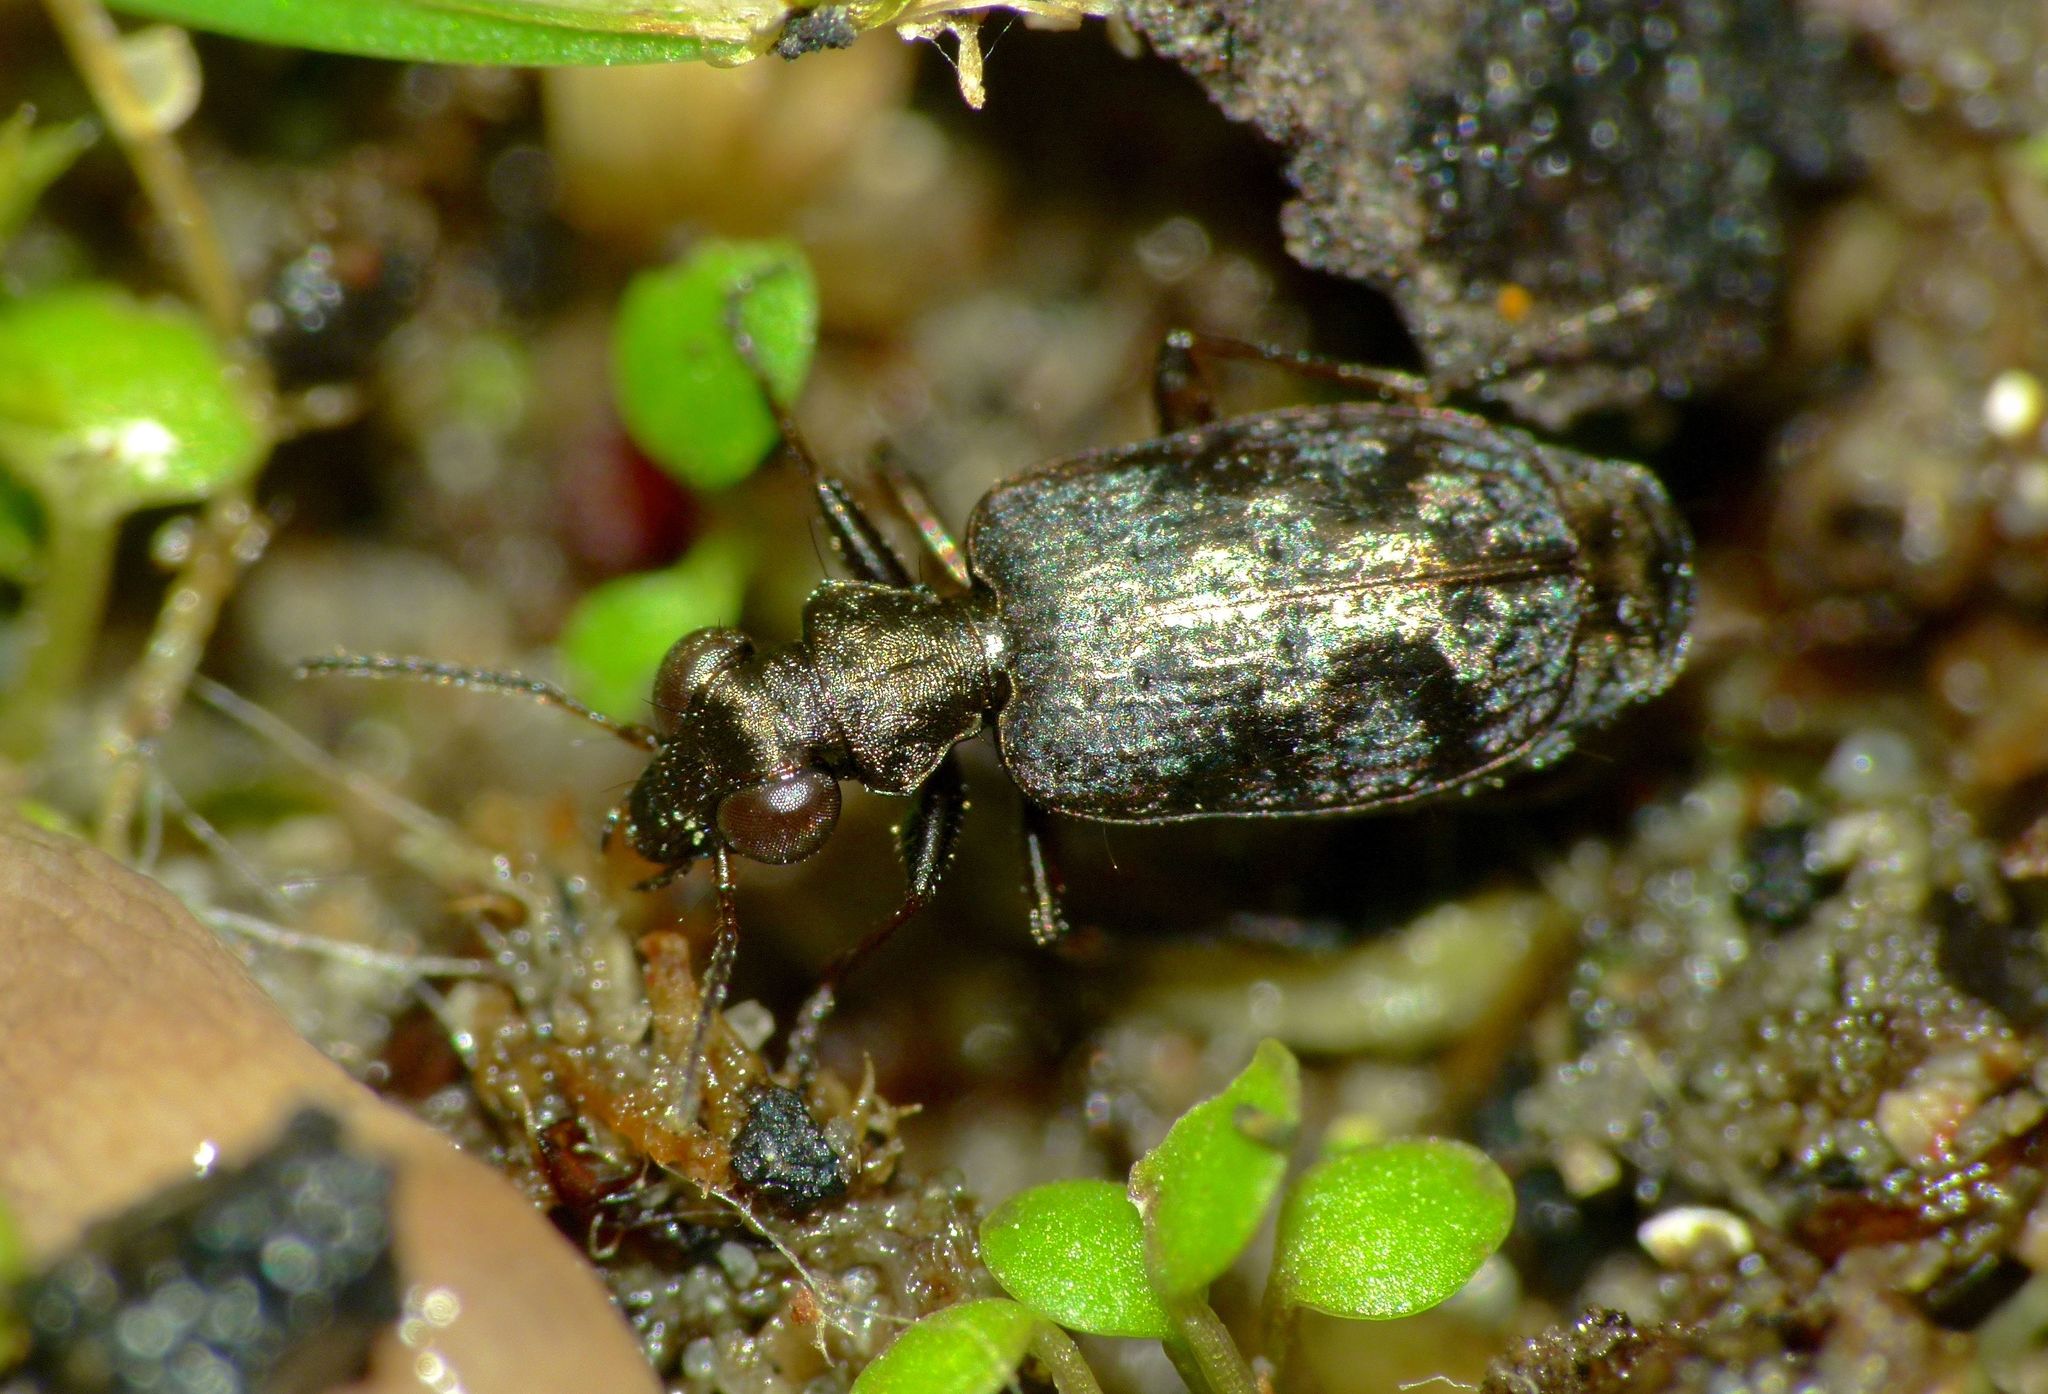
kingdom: Animalia
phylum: Arthropoda
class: Insecta
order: Coleoptera
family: Carabidae
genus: Scopodes
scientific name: Scopodes fossulatus
